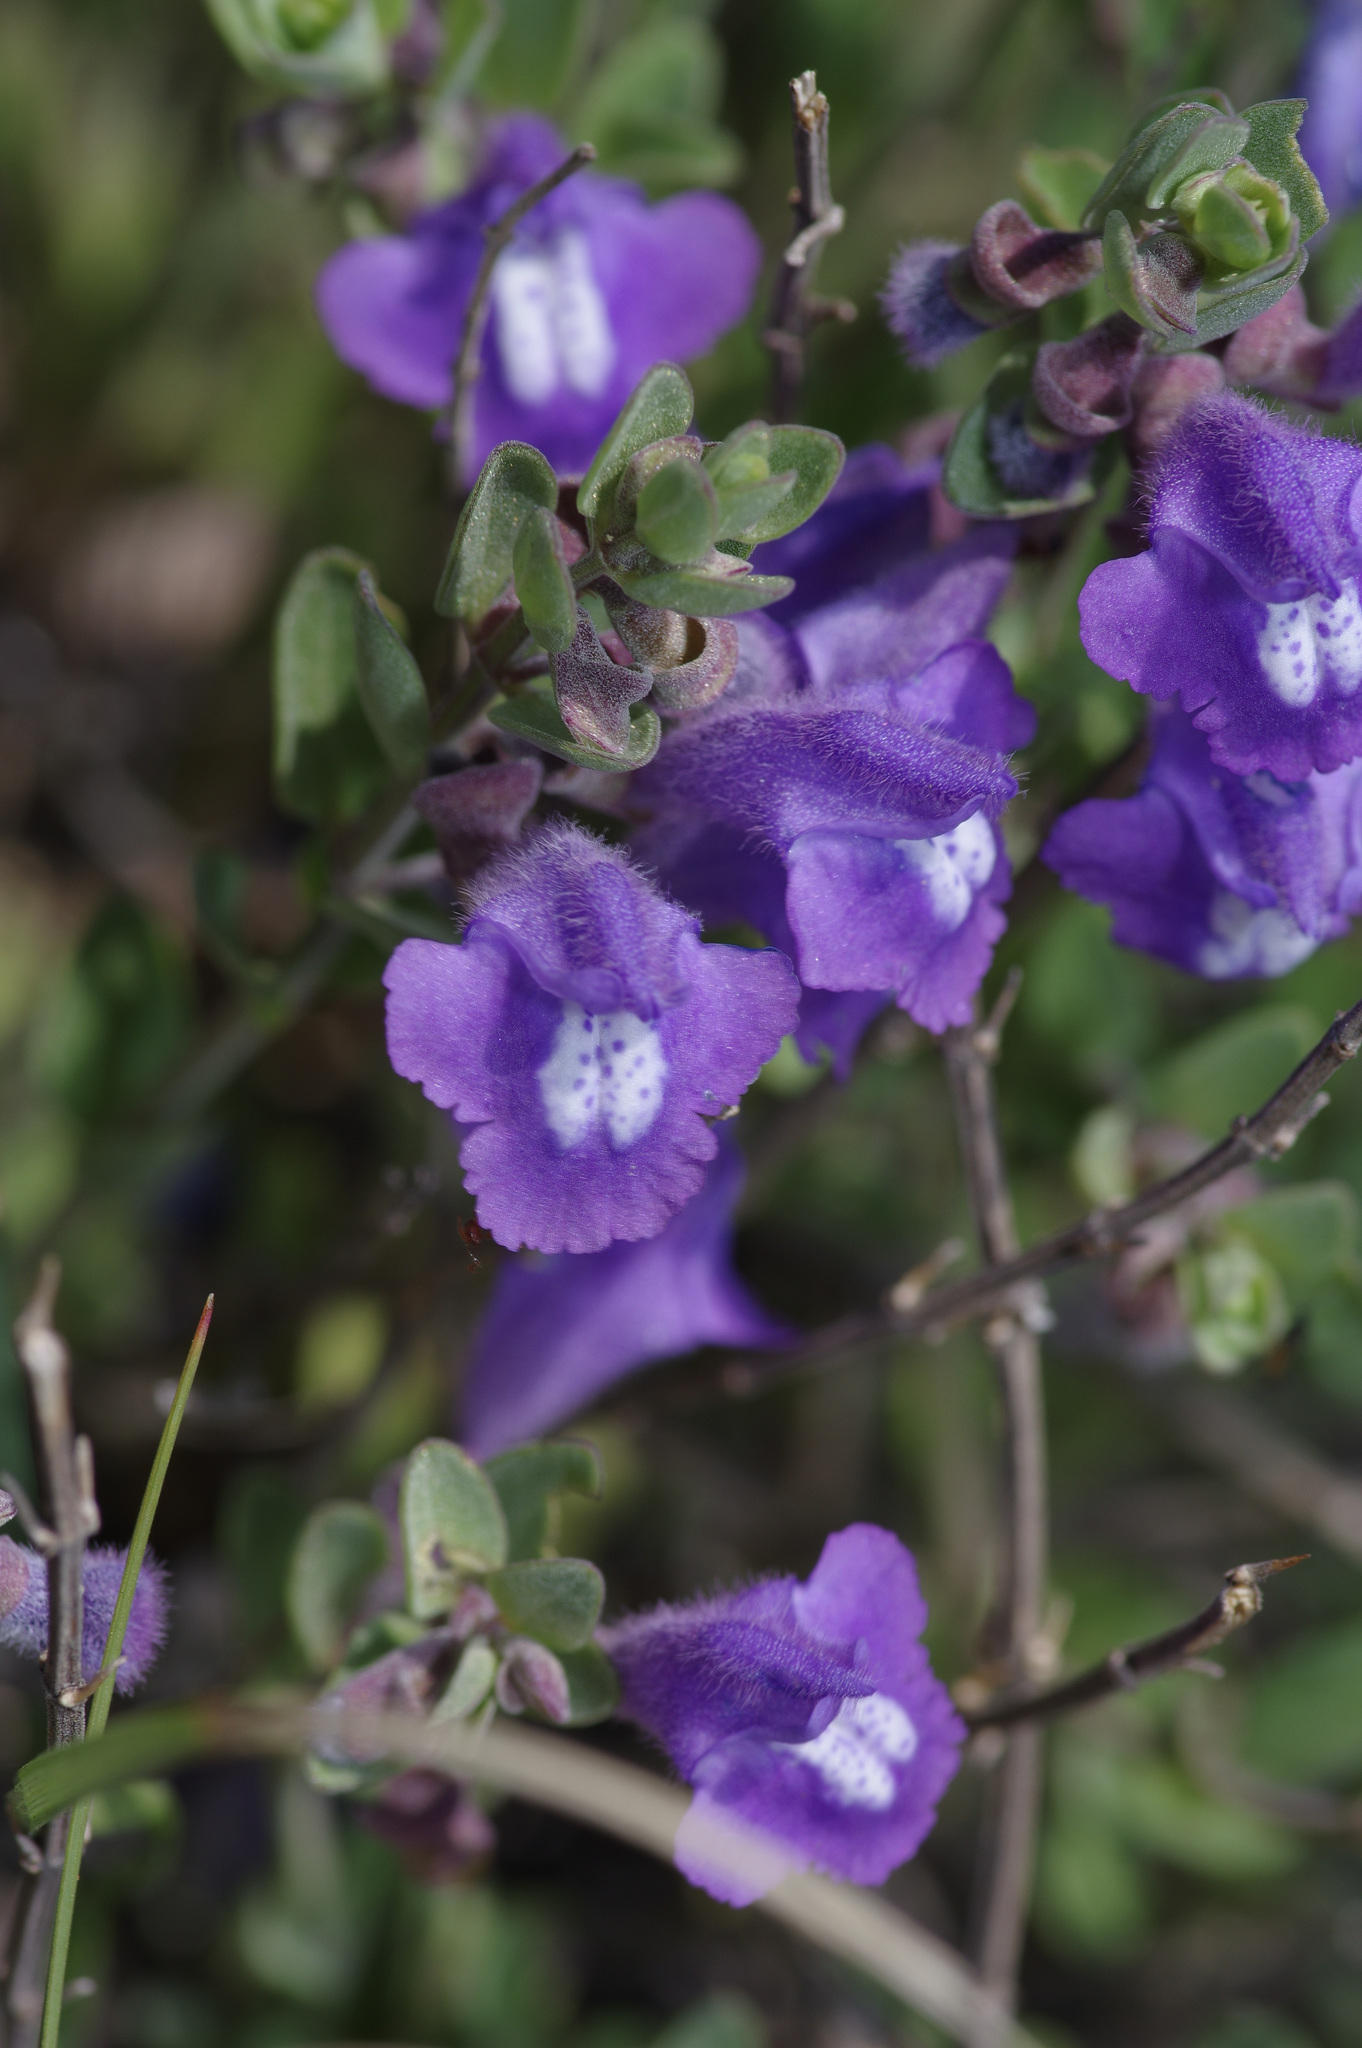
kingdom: Plantae
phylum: Tracheophyta
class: Magnoliopsida
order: Lamiales
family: Lamiaceae
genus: Scutellaria
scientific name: Scutellaria wrightii
